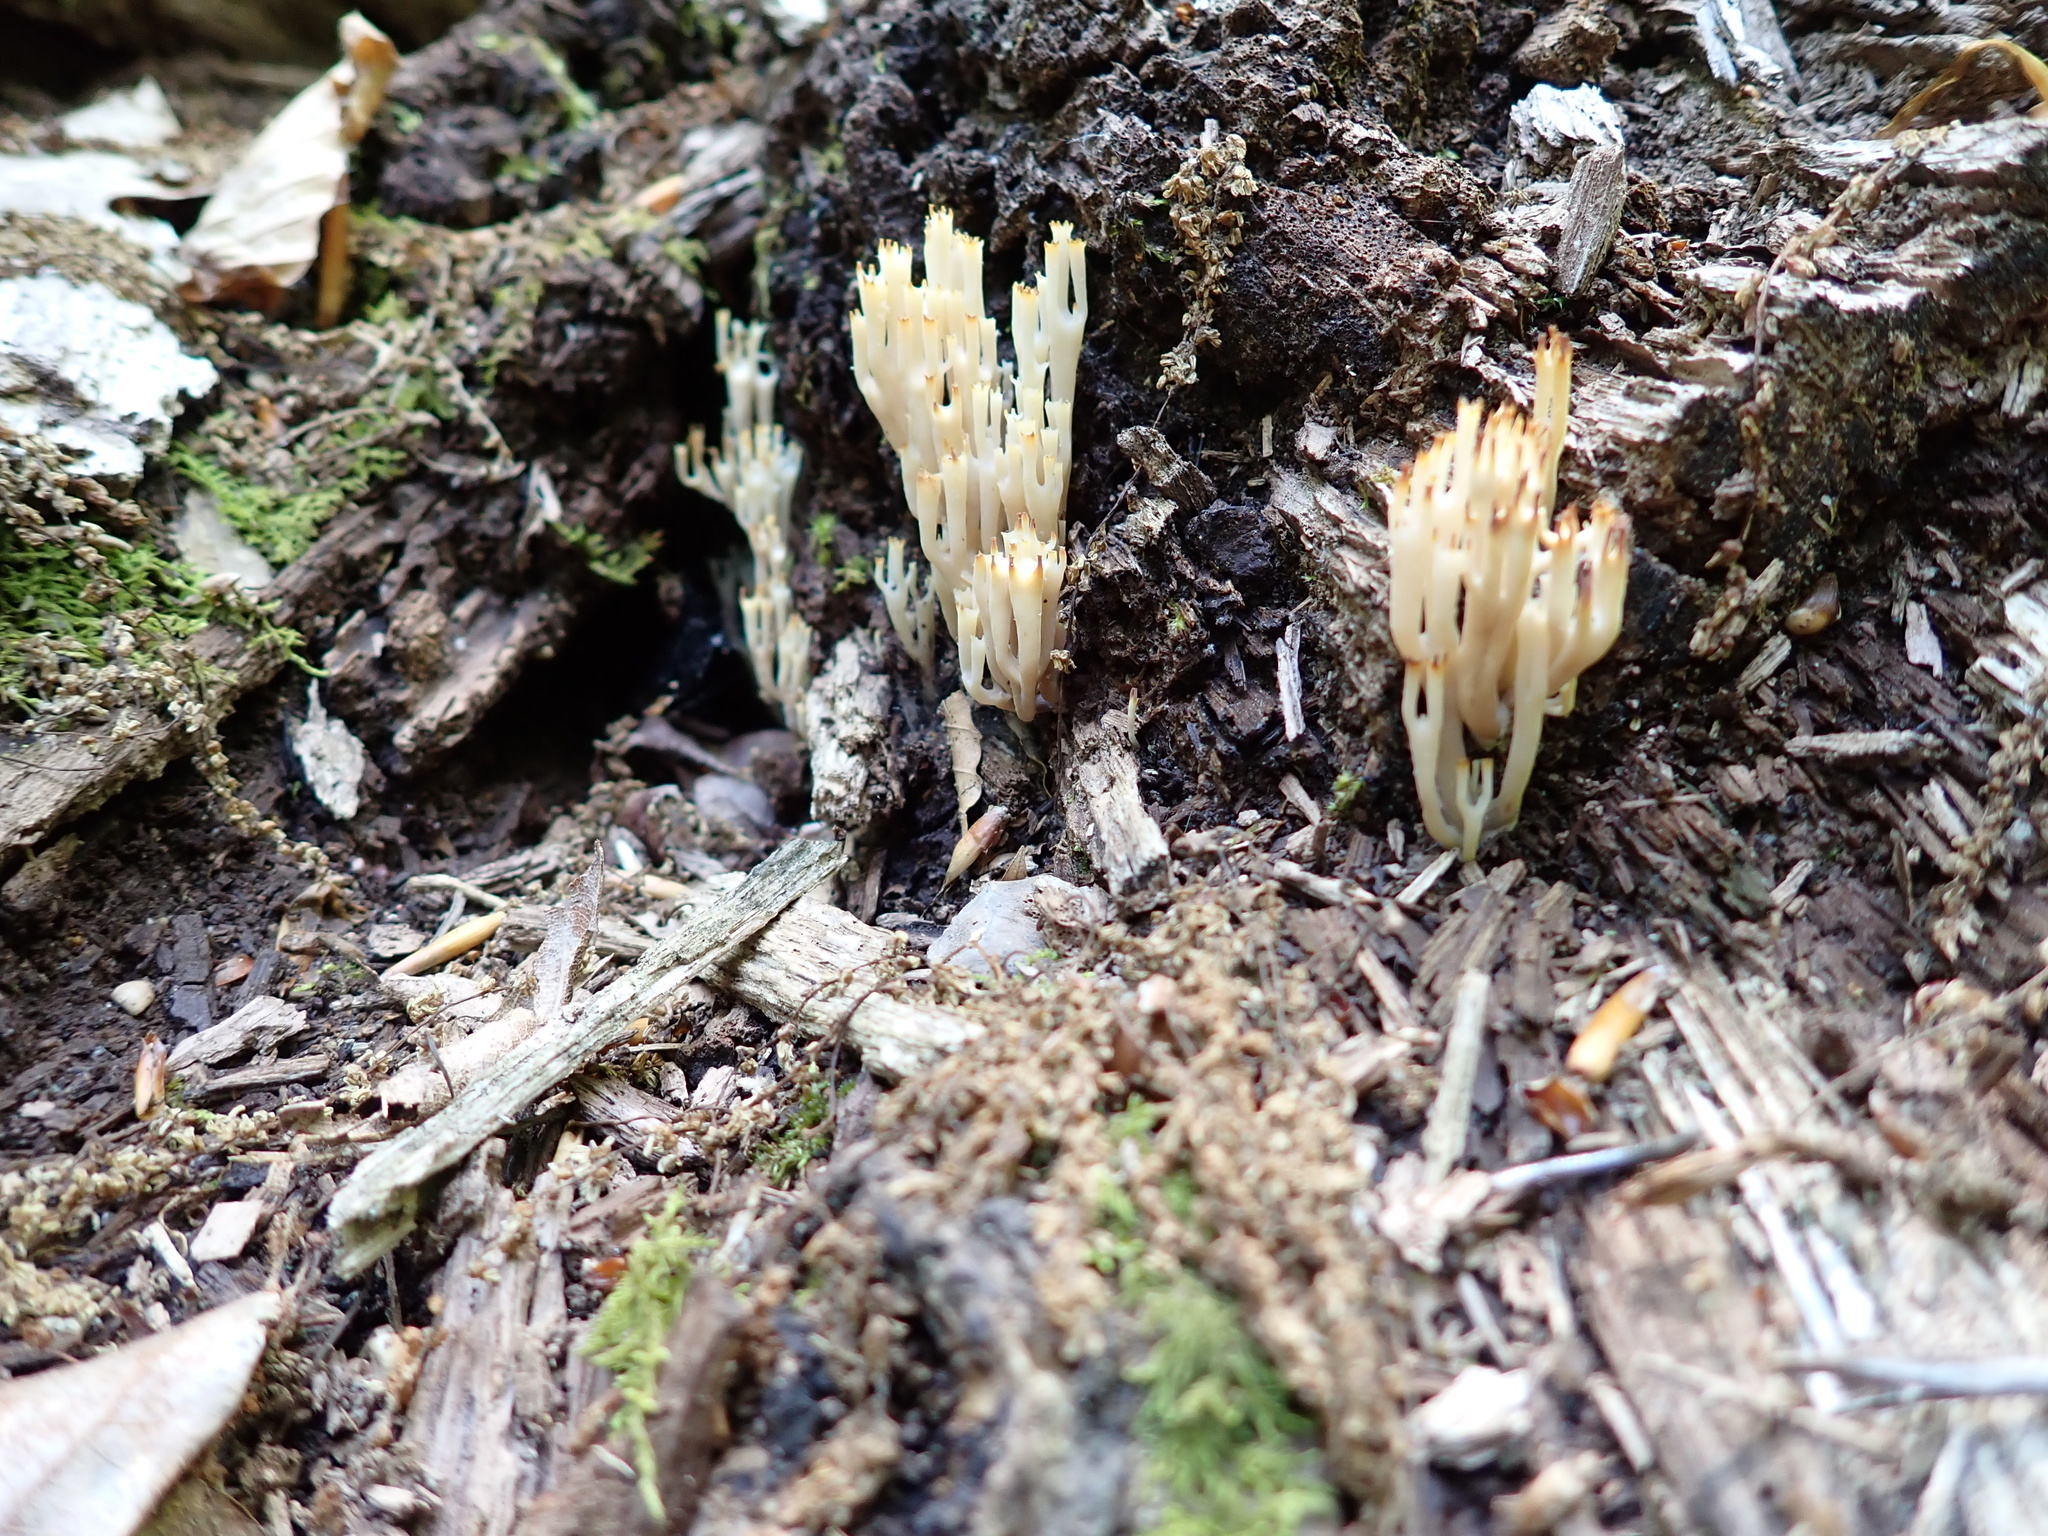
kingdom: Fungi
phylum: Basidiomycota
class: Agaricomycetes
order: Russulales
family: Auriscalpiaceae
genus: Artomyces
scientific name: Artomyces pyxidatus
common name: Crown-tipped coral fungus
